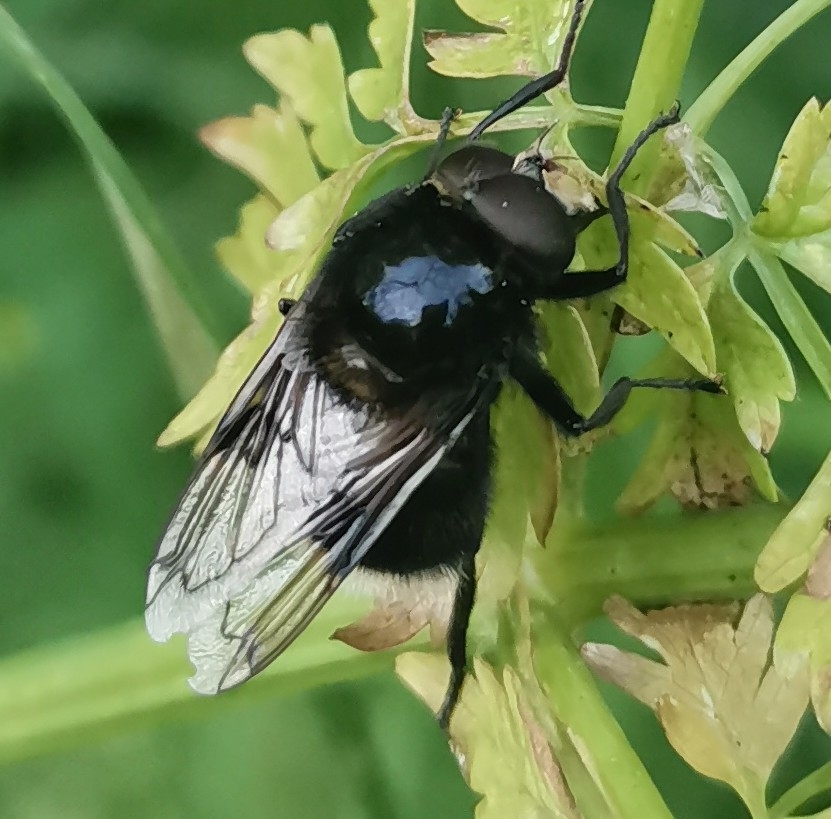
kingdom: Animalia
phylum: Arthropoda
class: Insecta
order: Diptera
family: Syrphidae
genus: Volucella
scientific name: Volucella bombylans
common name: Bumble bee hover fly
